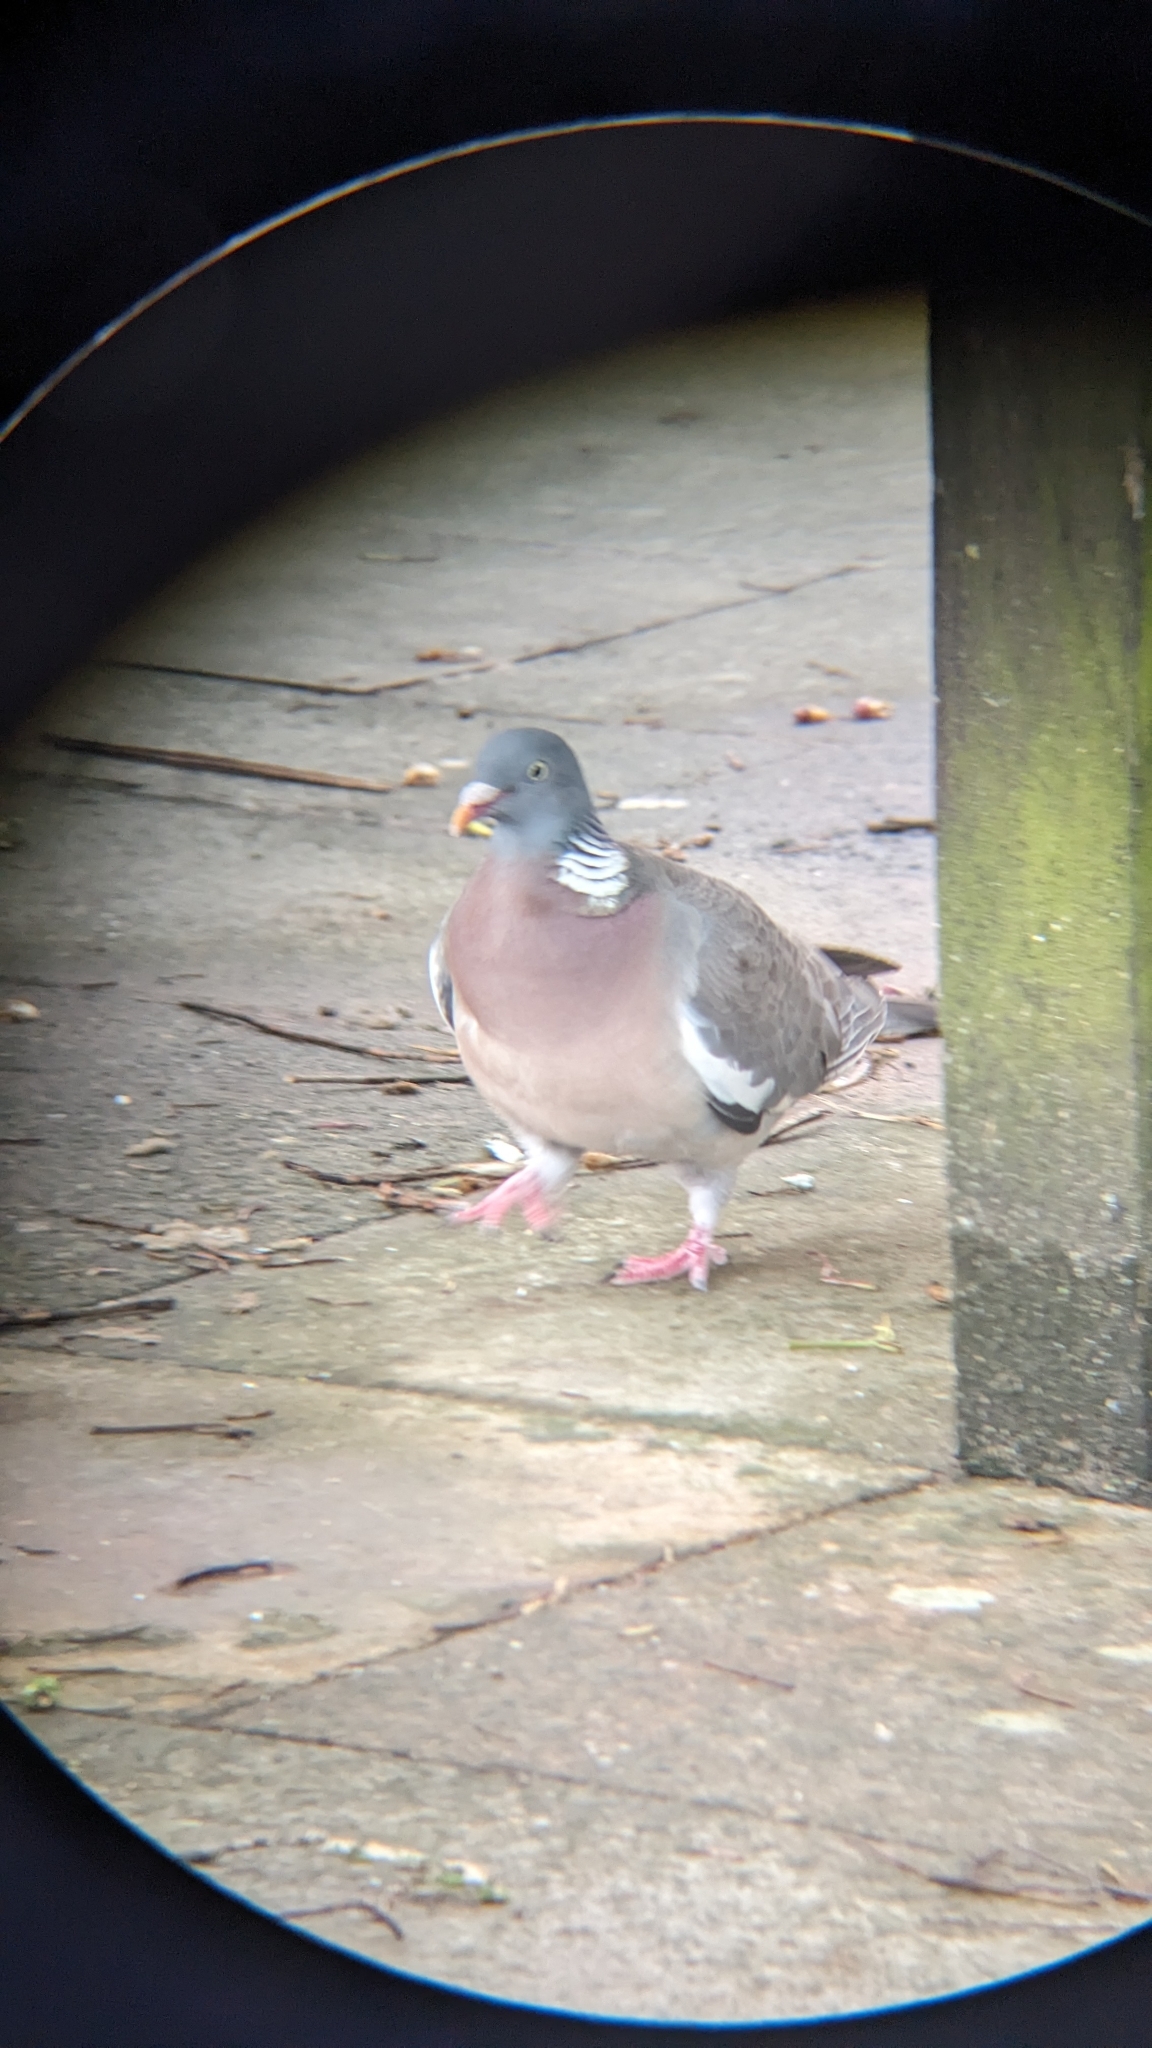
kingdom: Animalia
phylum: Chordata
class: Aves
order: Columbiformes
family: Columbidae
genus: Columba
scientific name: Columba palumbus
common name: Common wood pigeon
